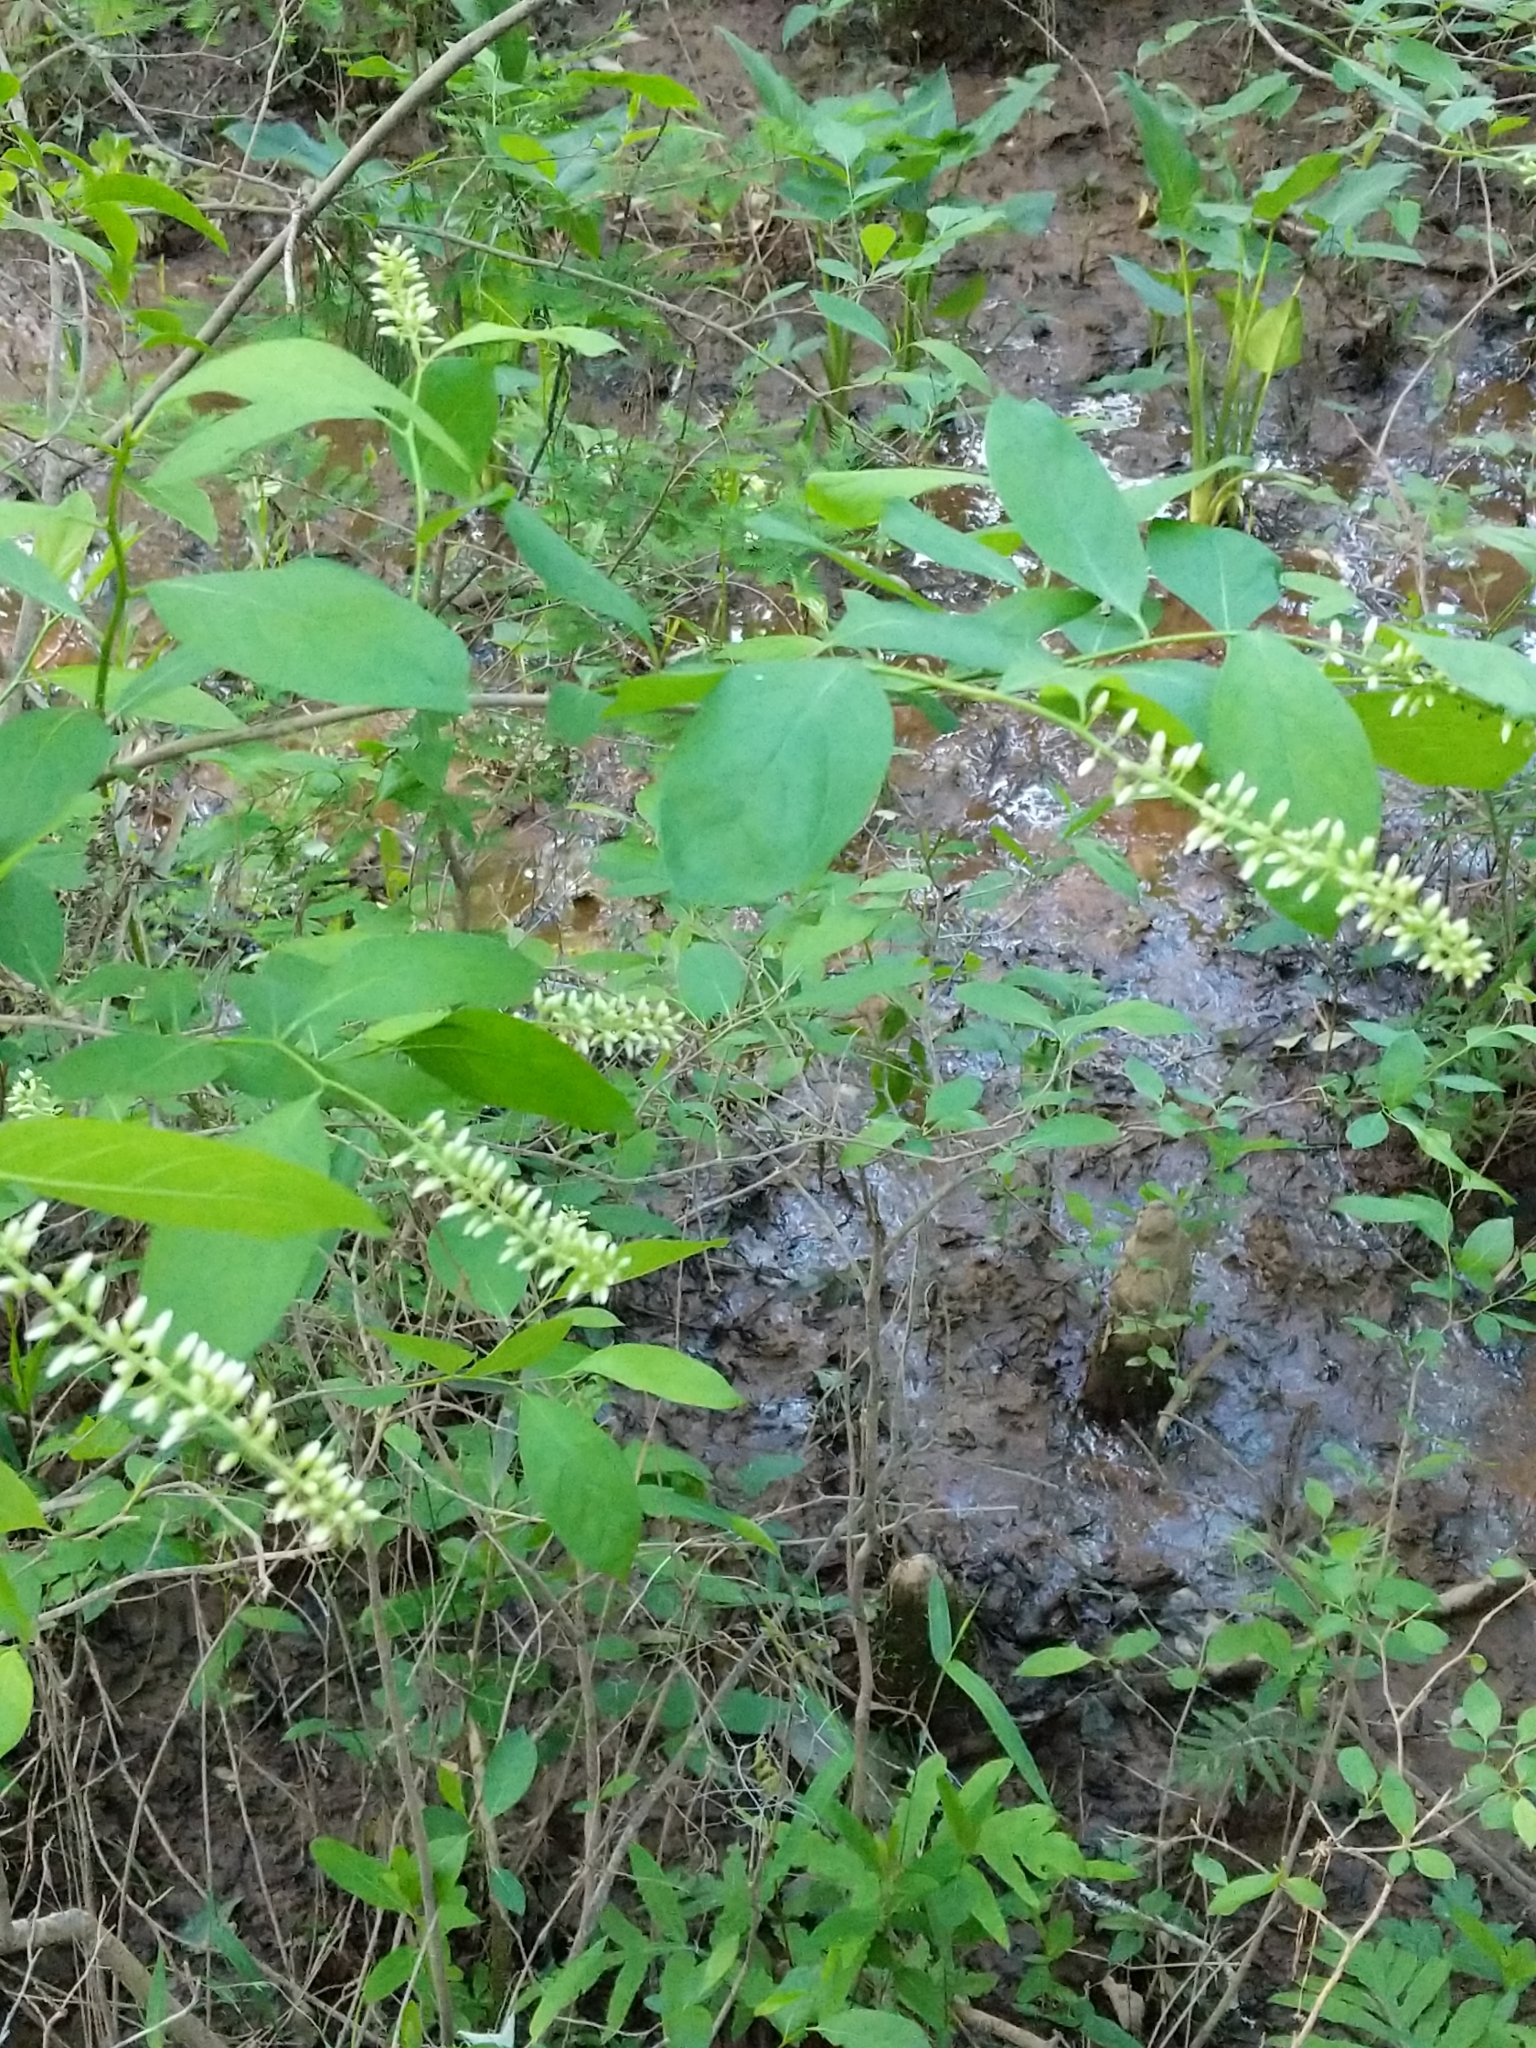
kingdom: Plantae
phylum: Tracheophyta
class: Magnoliopsida
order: Saxifragales
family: Iteaceae
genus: Itea
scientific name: Itea virginica
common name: Sweetspire
